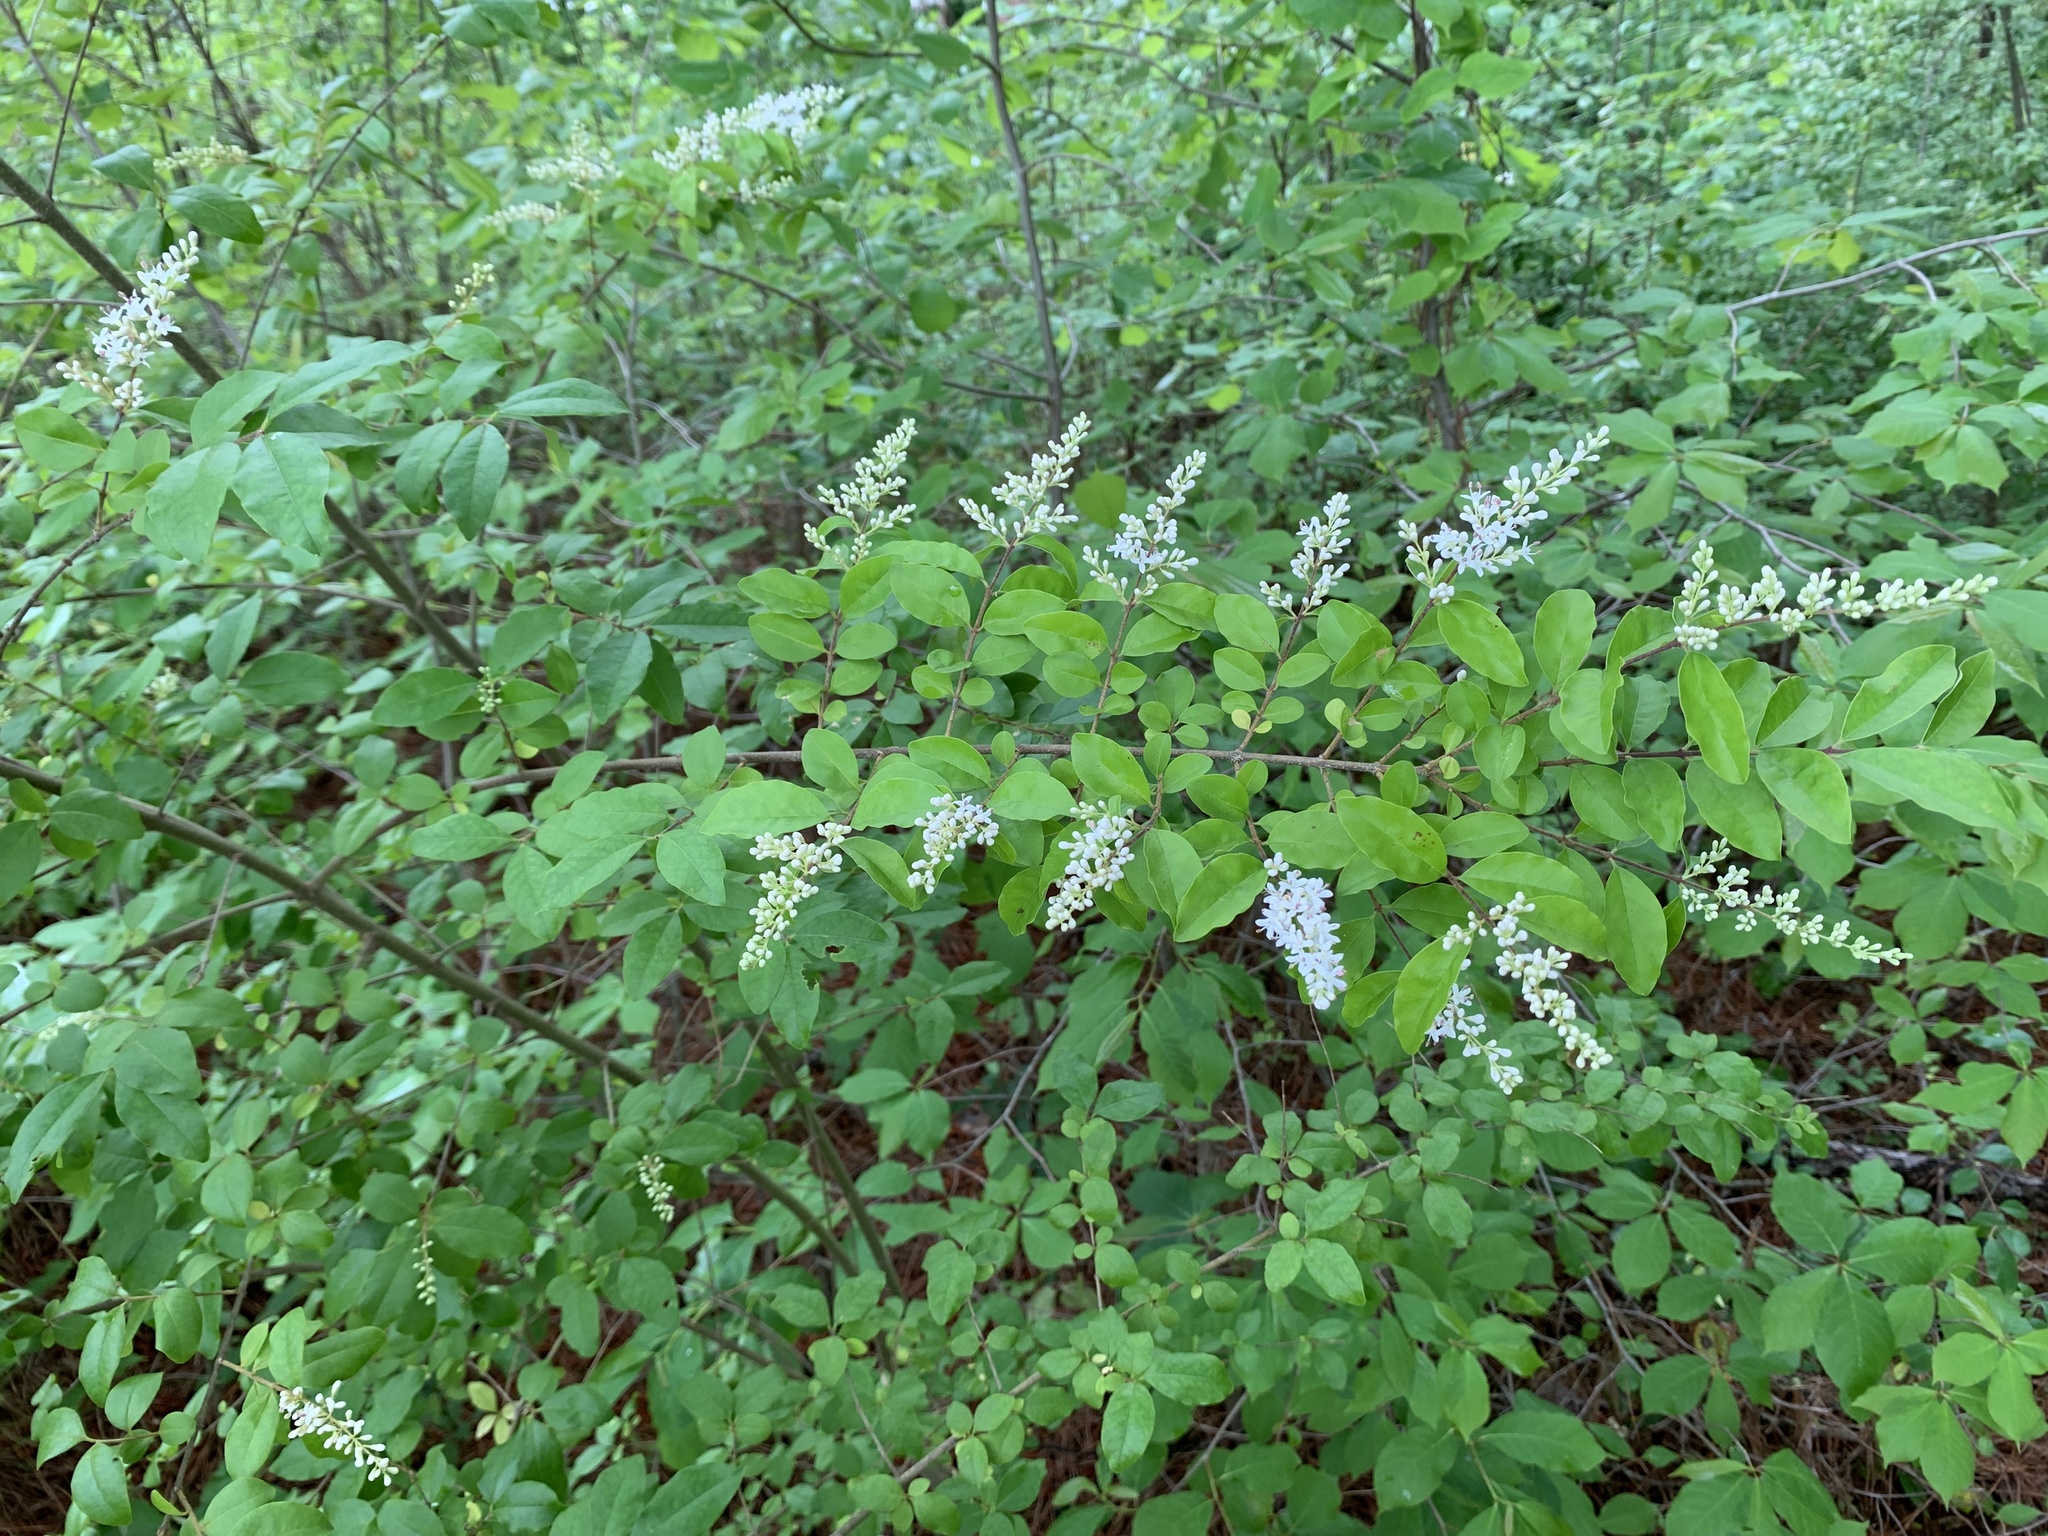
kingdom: Plantae
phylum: Tracheophyta
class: Magnoliopsida
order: Lamiales
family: Oleaceae
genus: Ligustrum
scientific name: Ligustrum sinense
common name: Chinese privet
